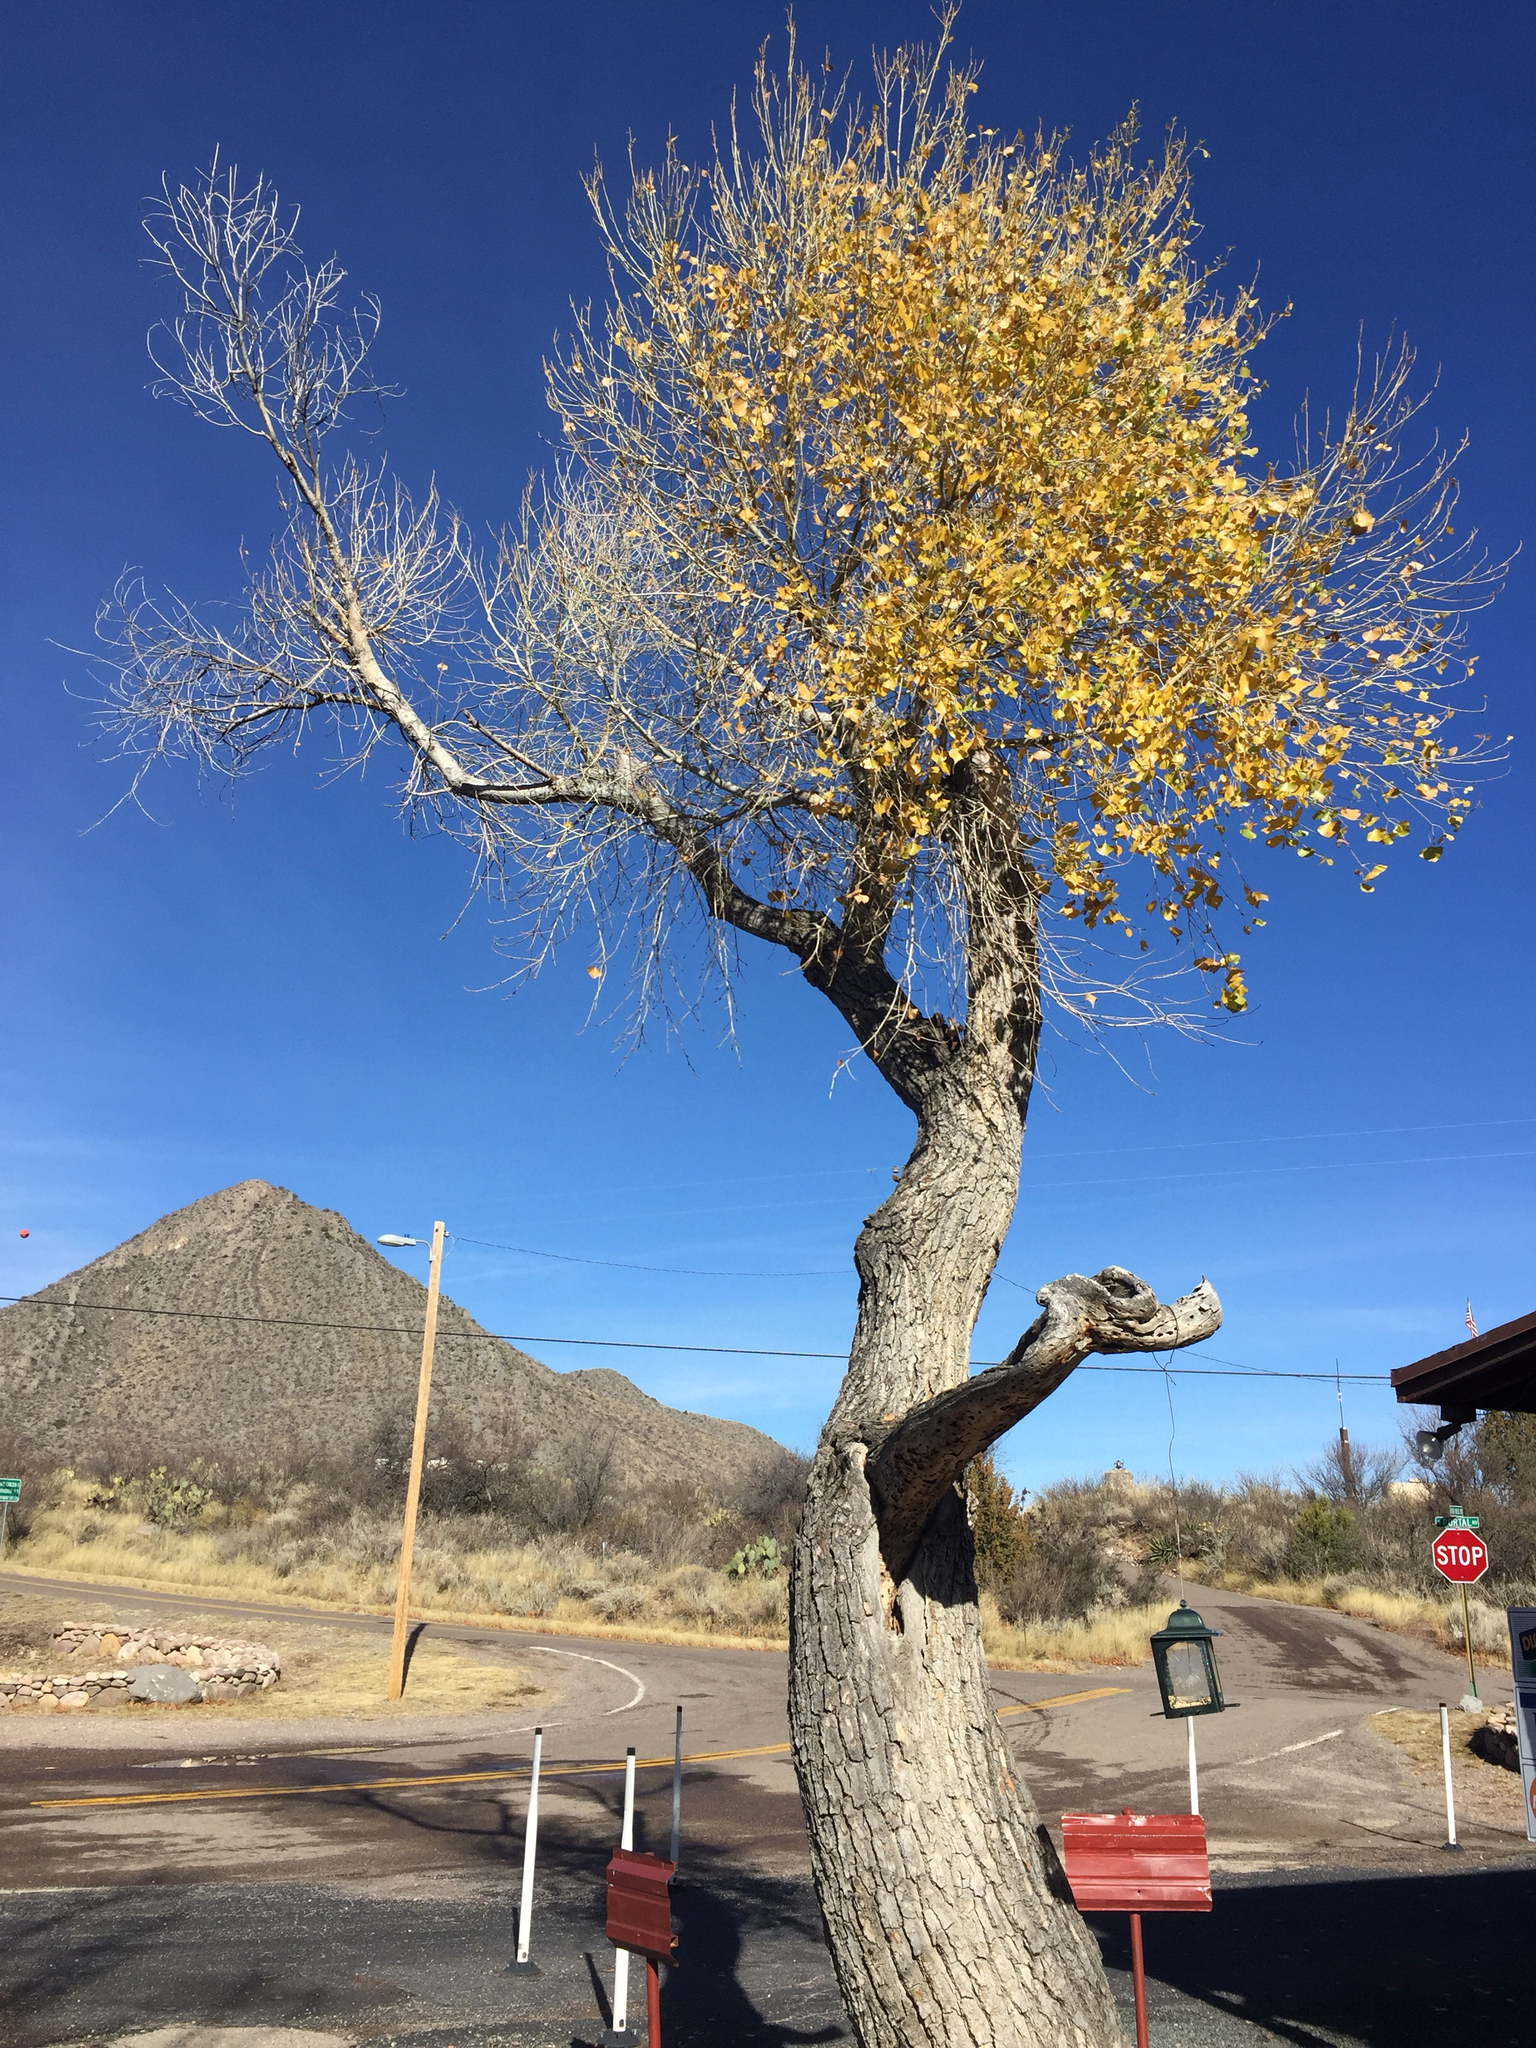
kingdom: Plantae
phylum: Tracheophyta
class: Magnoliopsida
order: Malpighiales
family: Salicaceae
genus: Populus
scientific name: Populus fremontii
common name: Fremont's cottonwood
